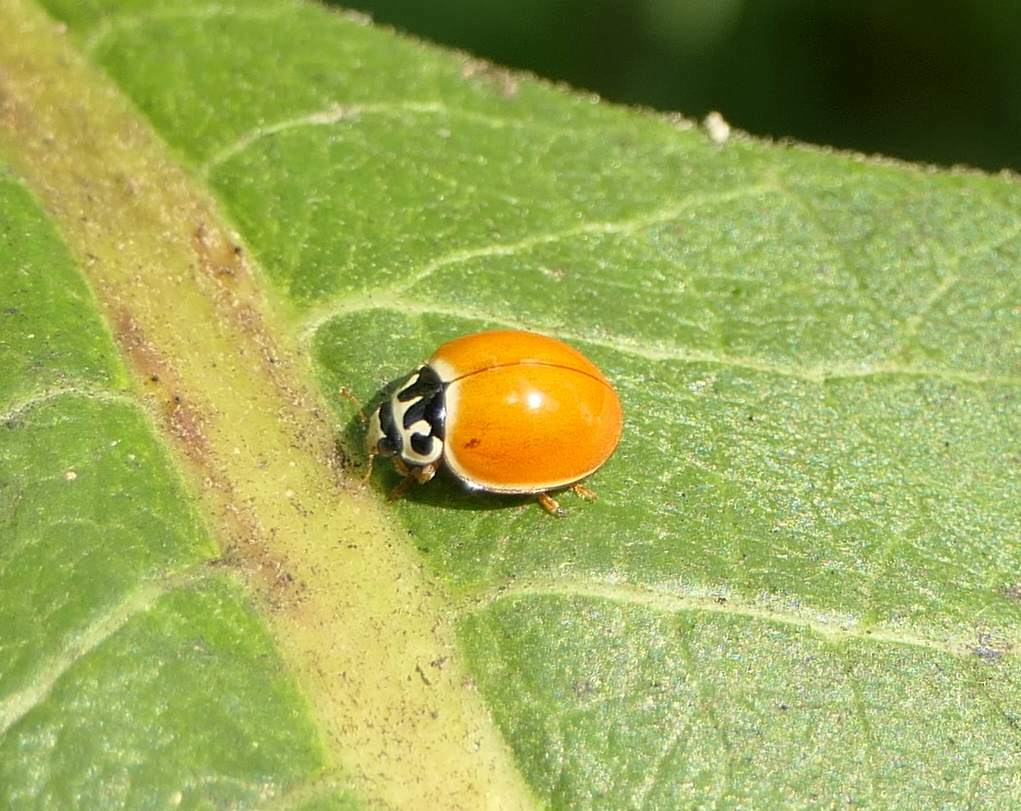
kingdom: Animalia
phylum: Arthropoda
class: Insecta
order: Coleoptera
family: Coccinellidae
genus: Cycloneda
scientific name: Cycloneda munda
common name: Polished lady beetle
